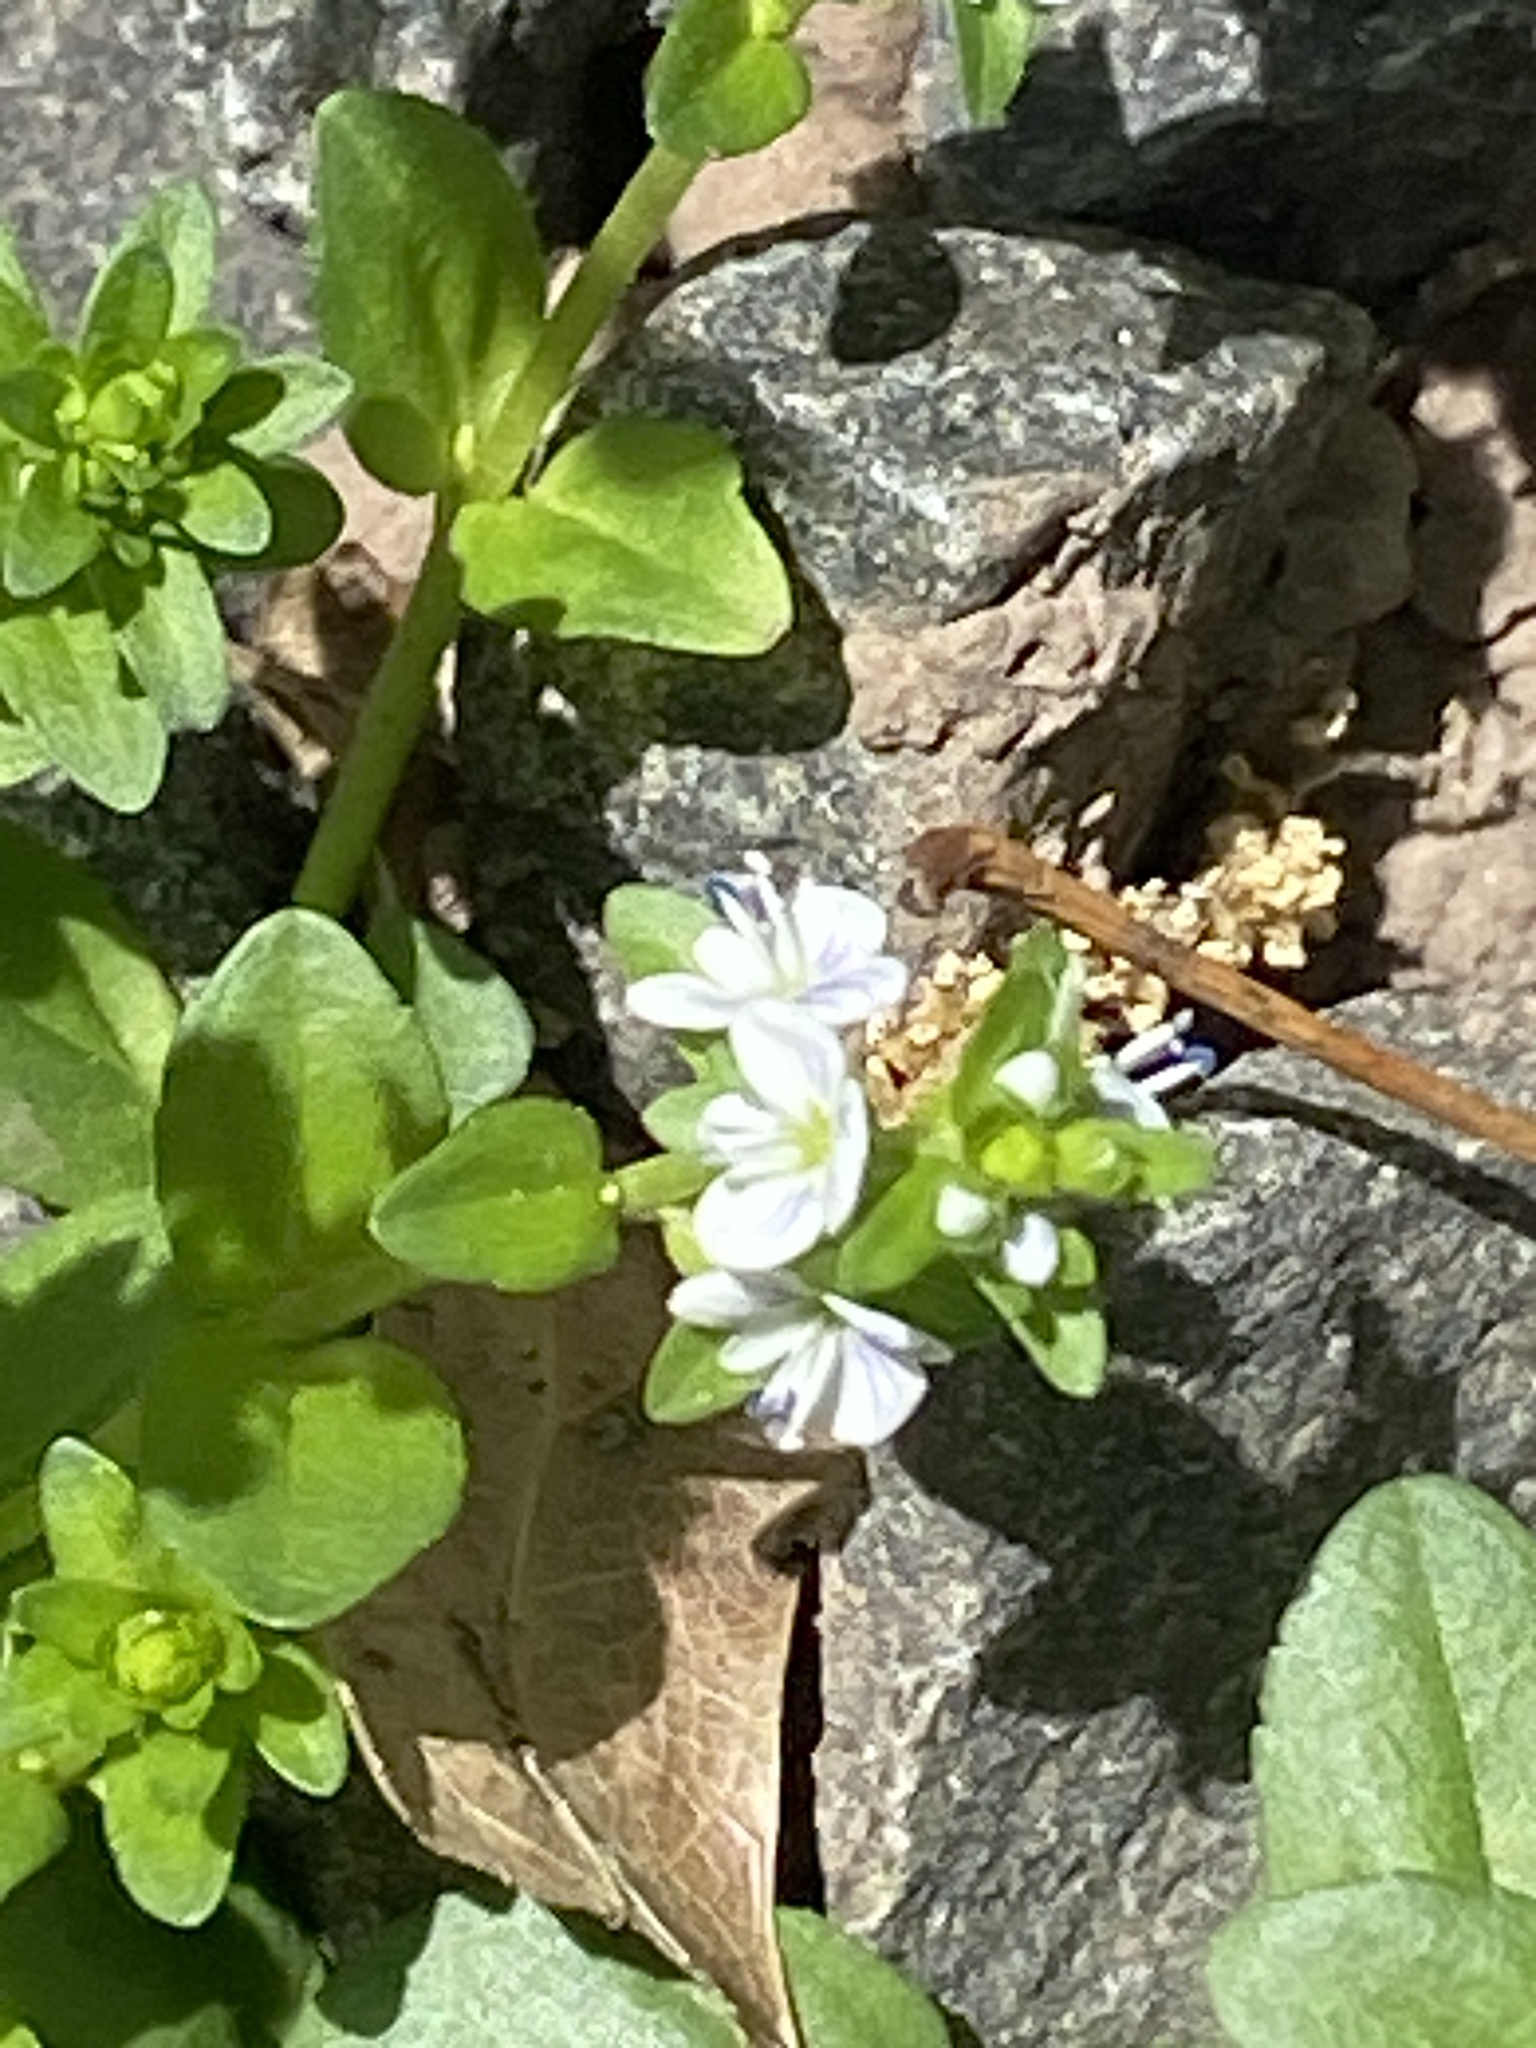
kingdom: Plantae
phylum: Tracheophyta
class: Magnoliopsida
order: Lamiales
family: Plantaginaceae
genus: Veronica
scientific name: Veronica serpyllifolia
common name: Thyme-leaved speedwell
